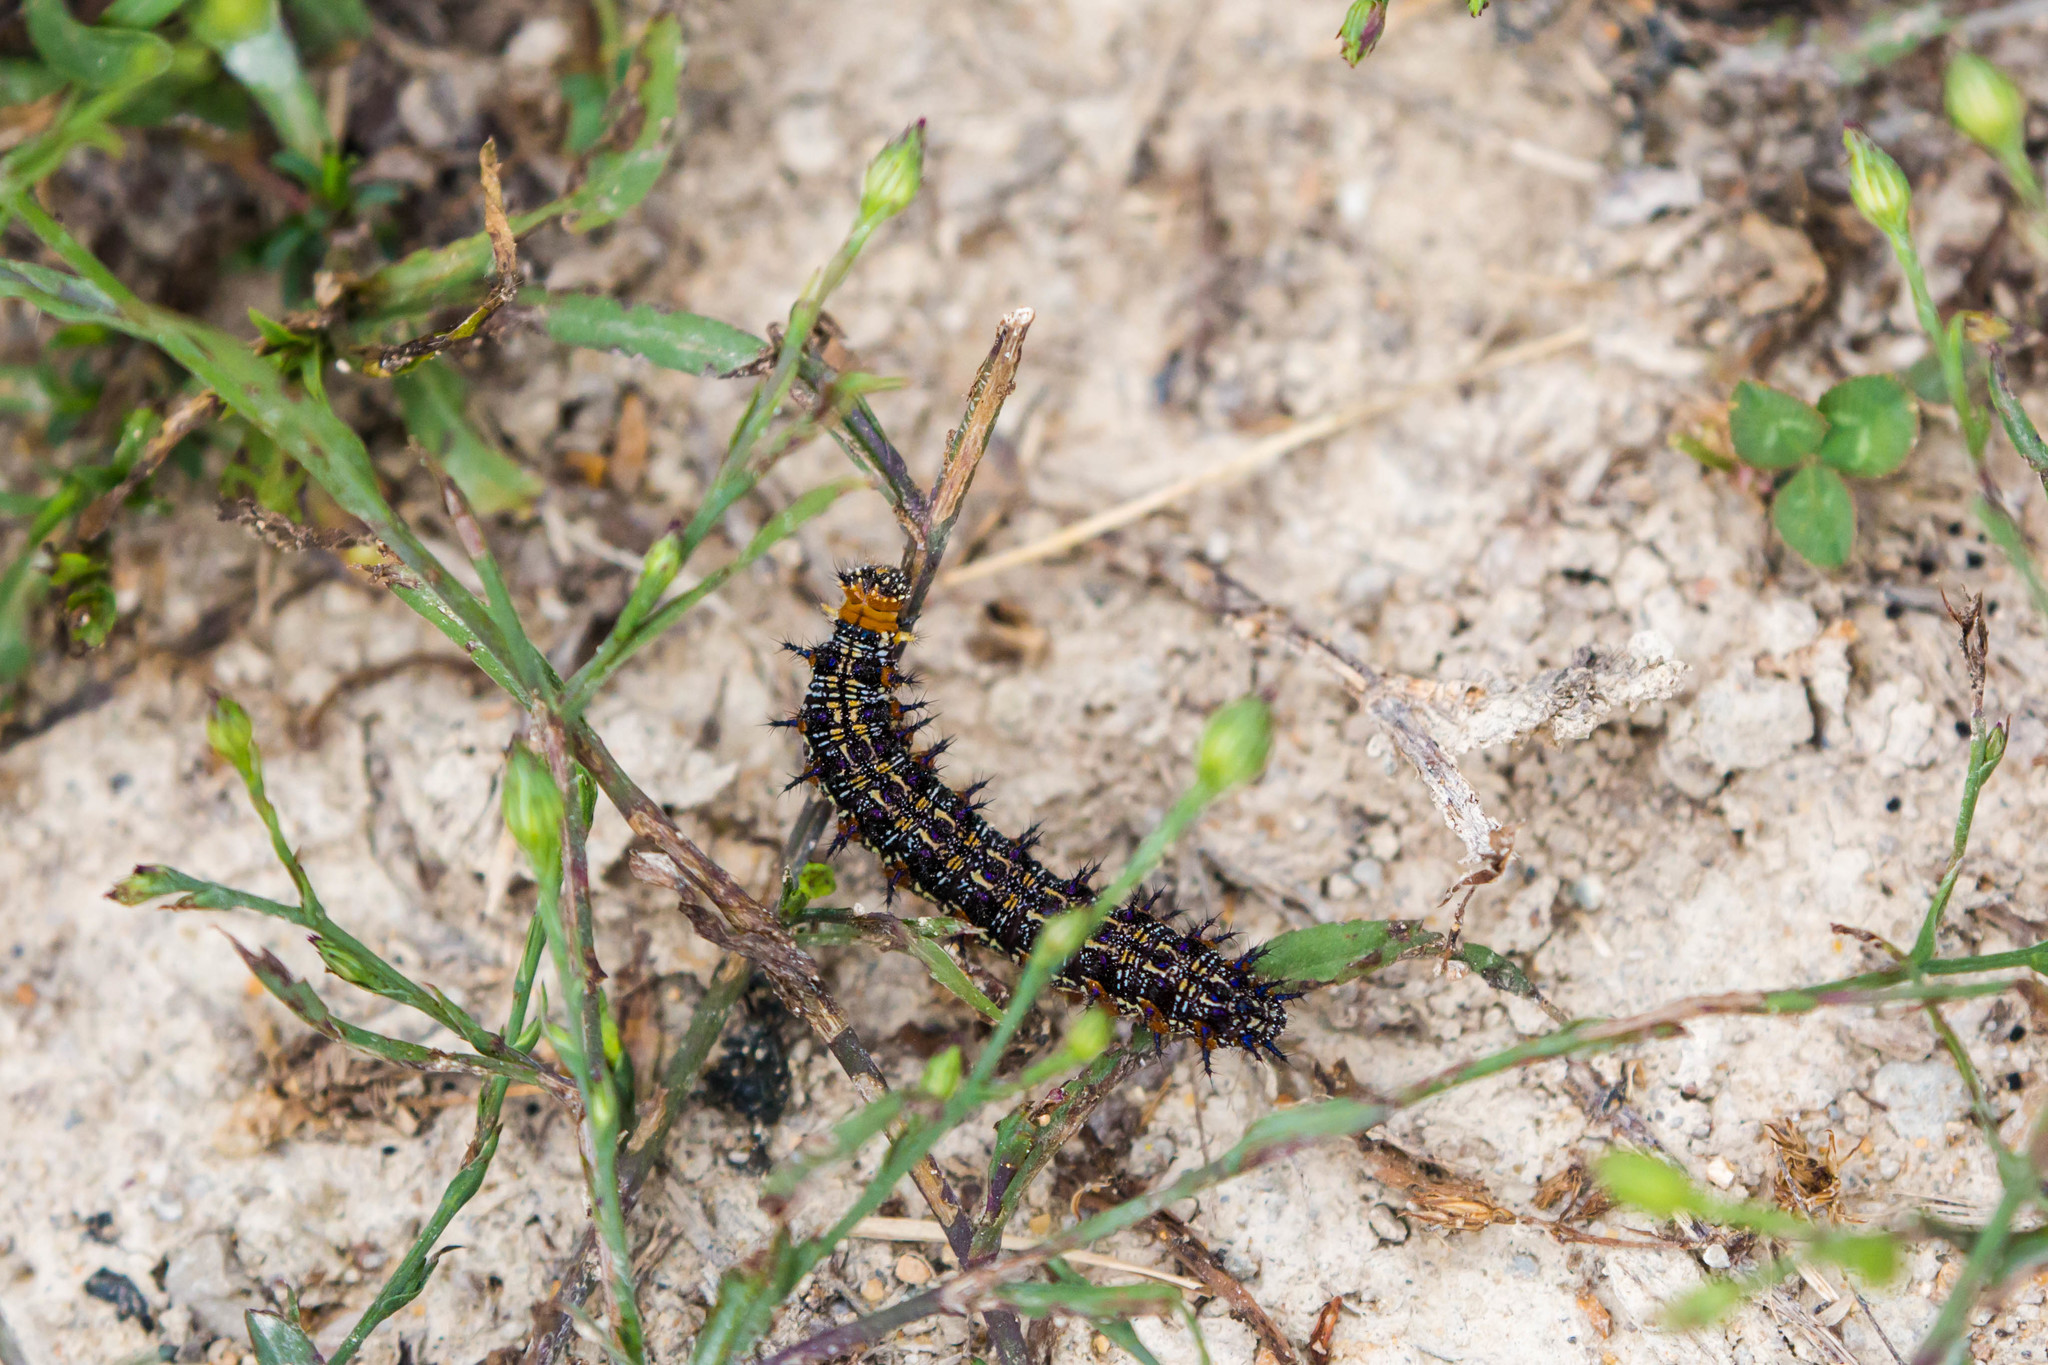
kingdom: Animalia
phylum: Arthropoda
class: Insecta
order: Lepidoptera
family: Nymphalidae
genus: Junonia
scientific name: Junonia coenia
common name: Common buckeye
